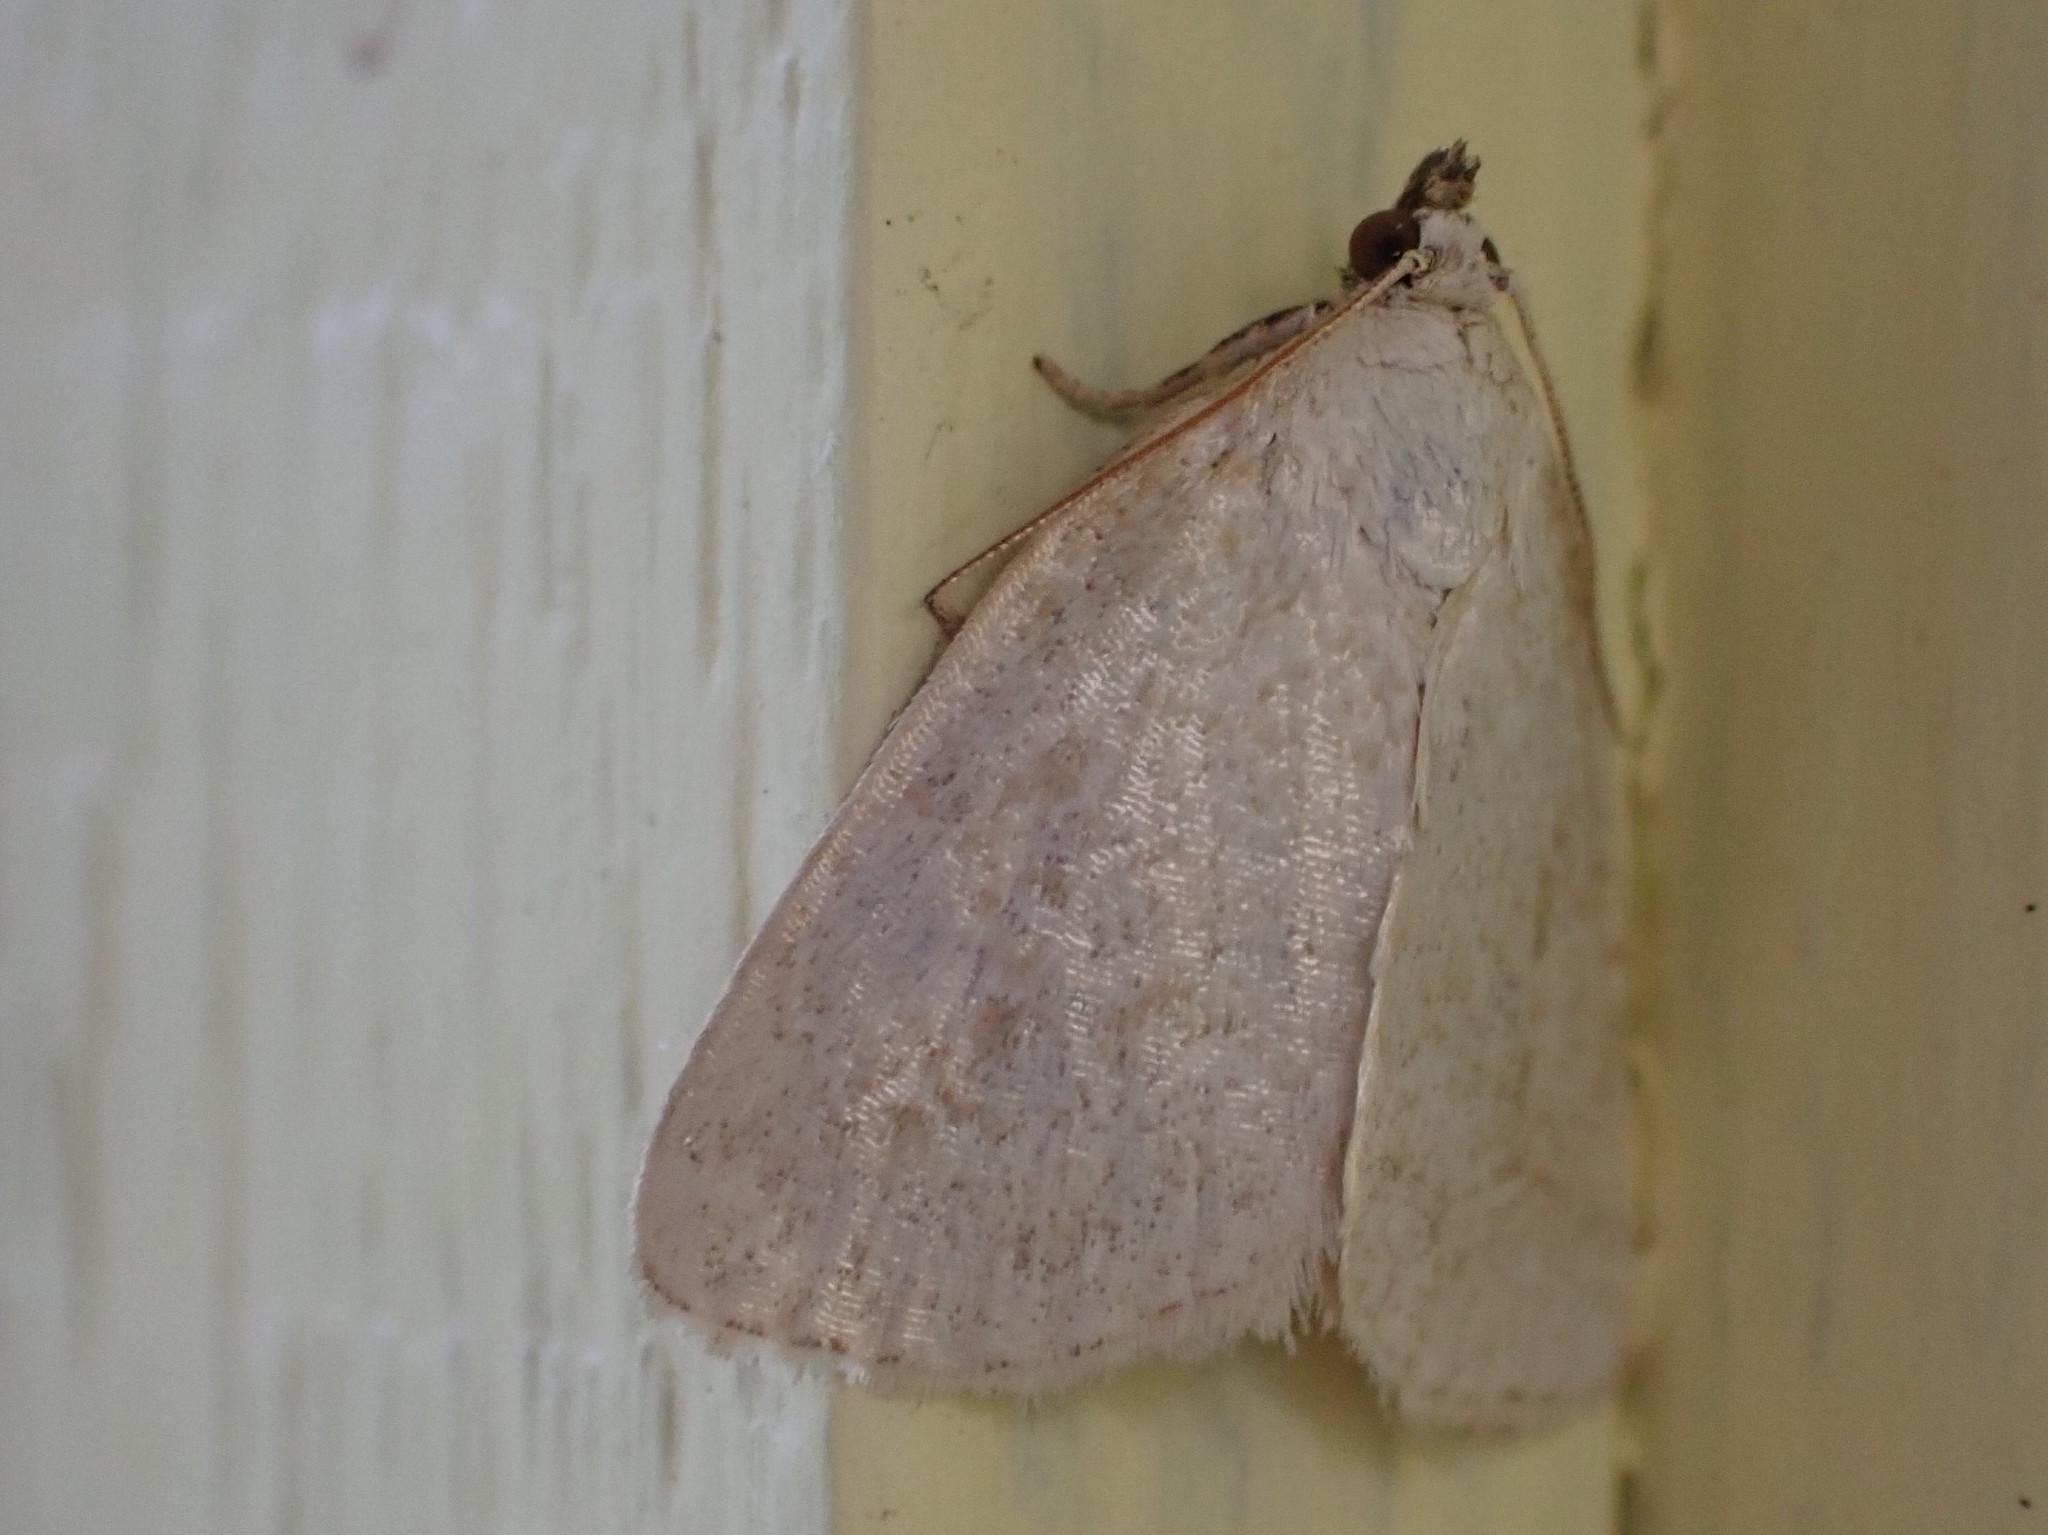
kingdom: Animalia
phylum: Arthropoda
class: Insecta
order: Lepidoptera
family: Noctuidae
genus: Protodeltote
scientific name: Protodeltote albidula
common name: Pale glyph
